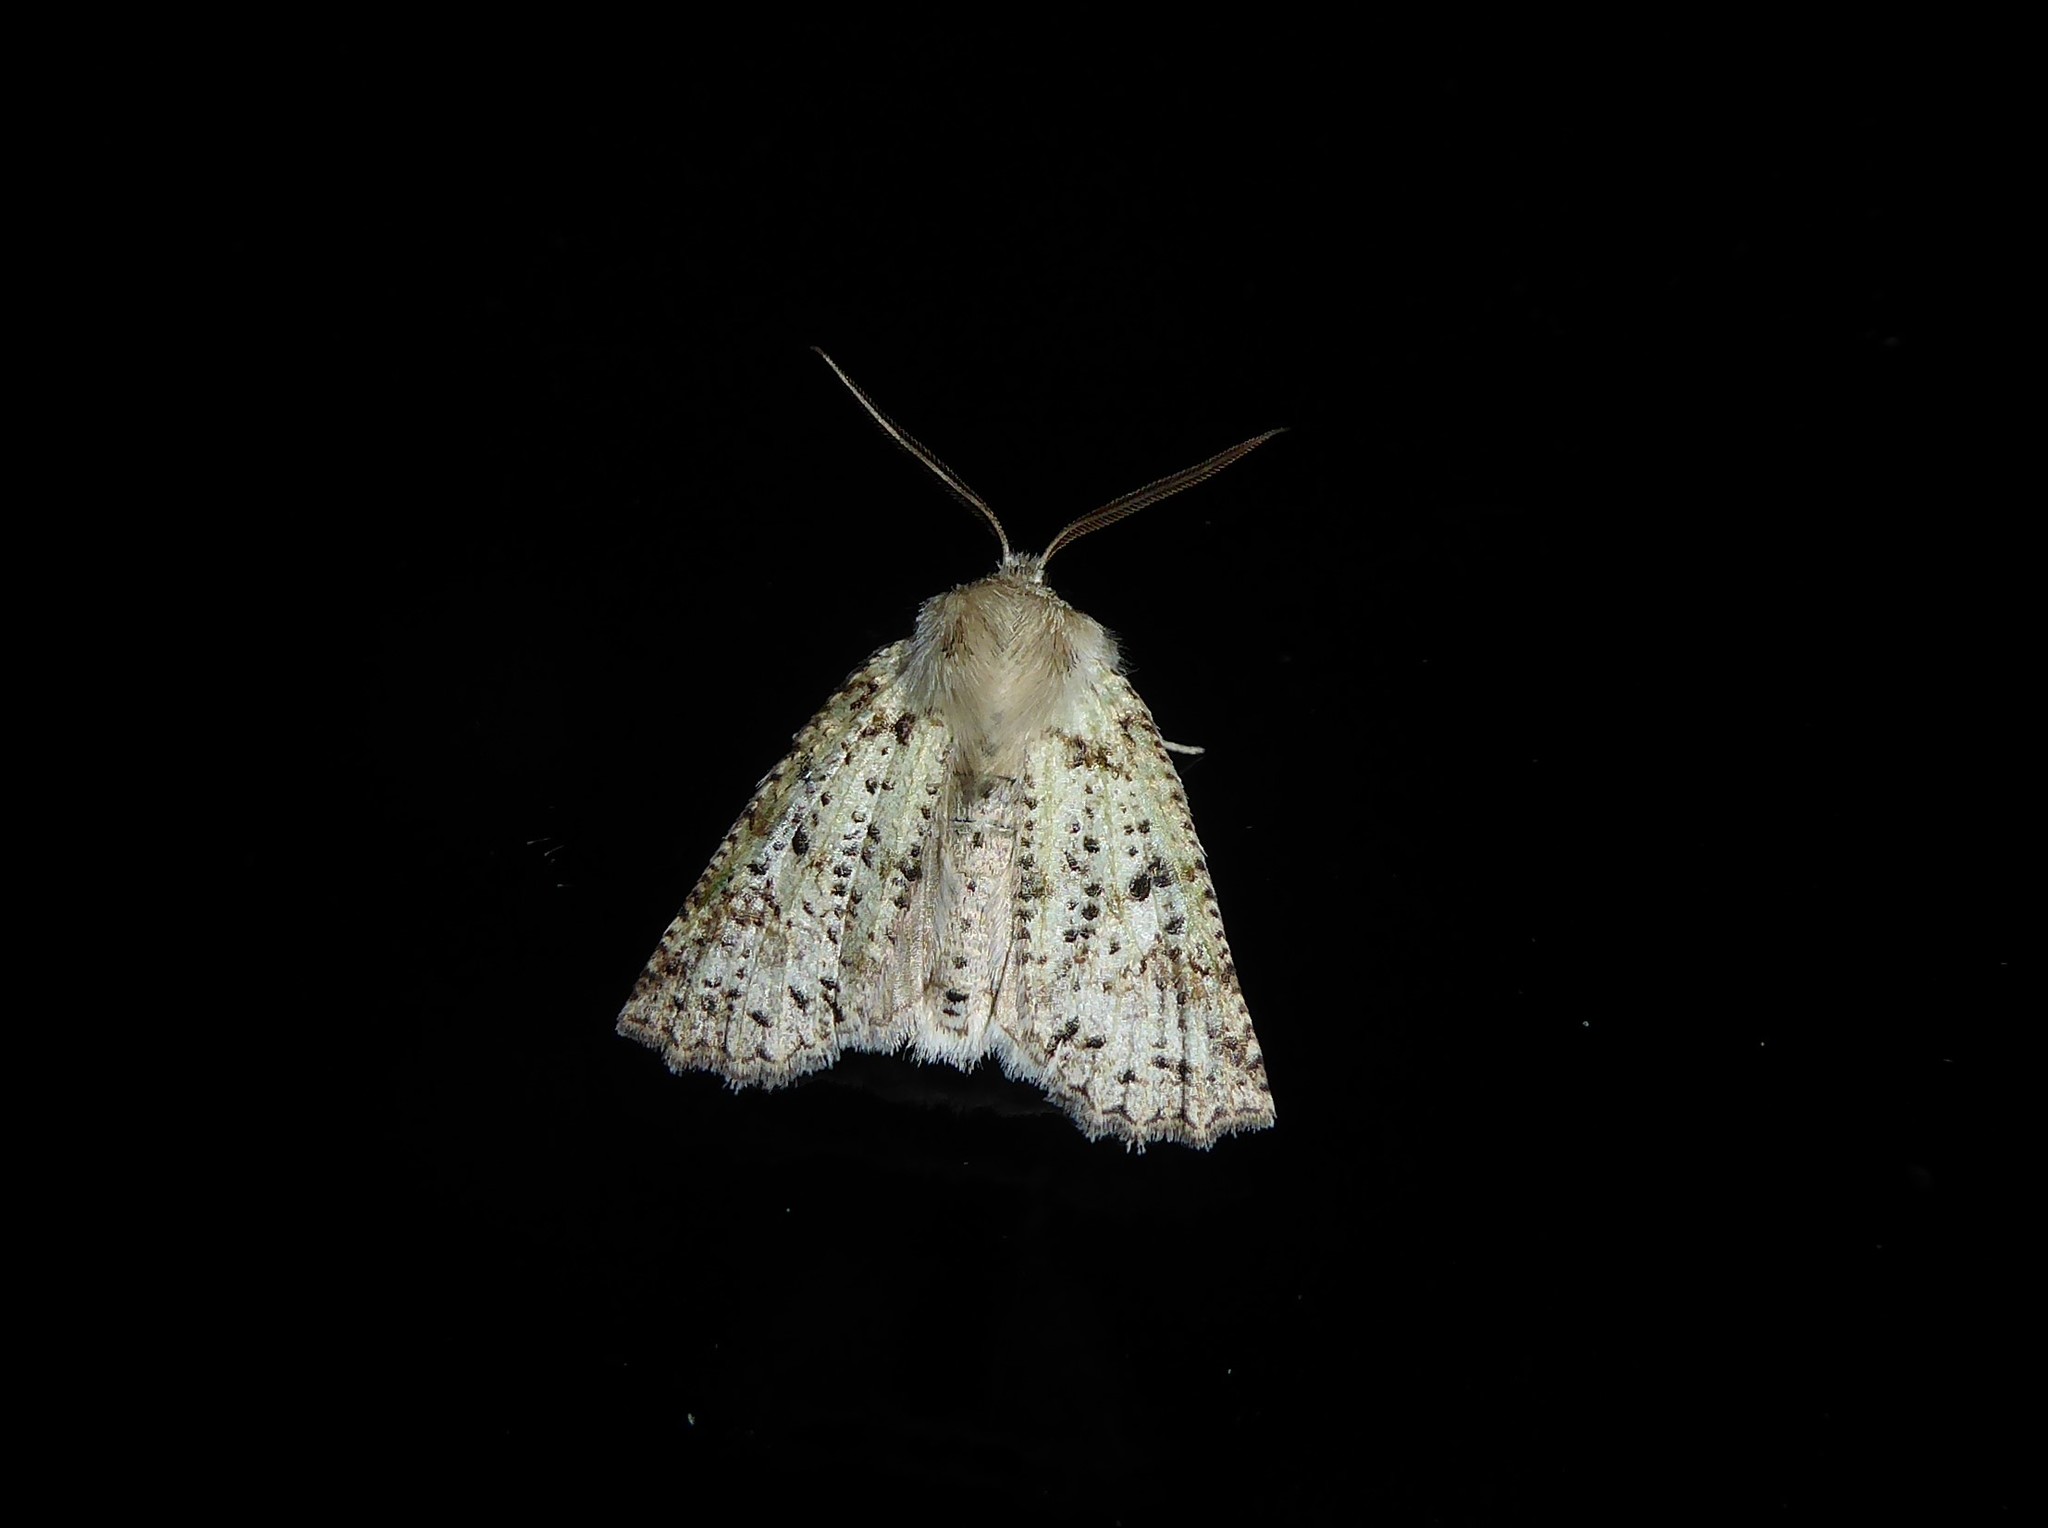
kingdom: Animalia
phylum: Arthropoda
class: Insecta
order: Lepidoptera
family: Geometridae
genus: Declana
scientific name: Declana floccosa
